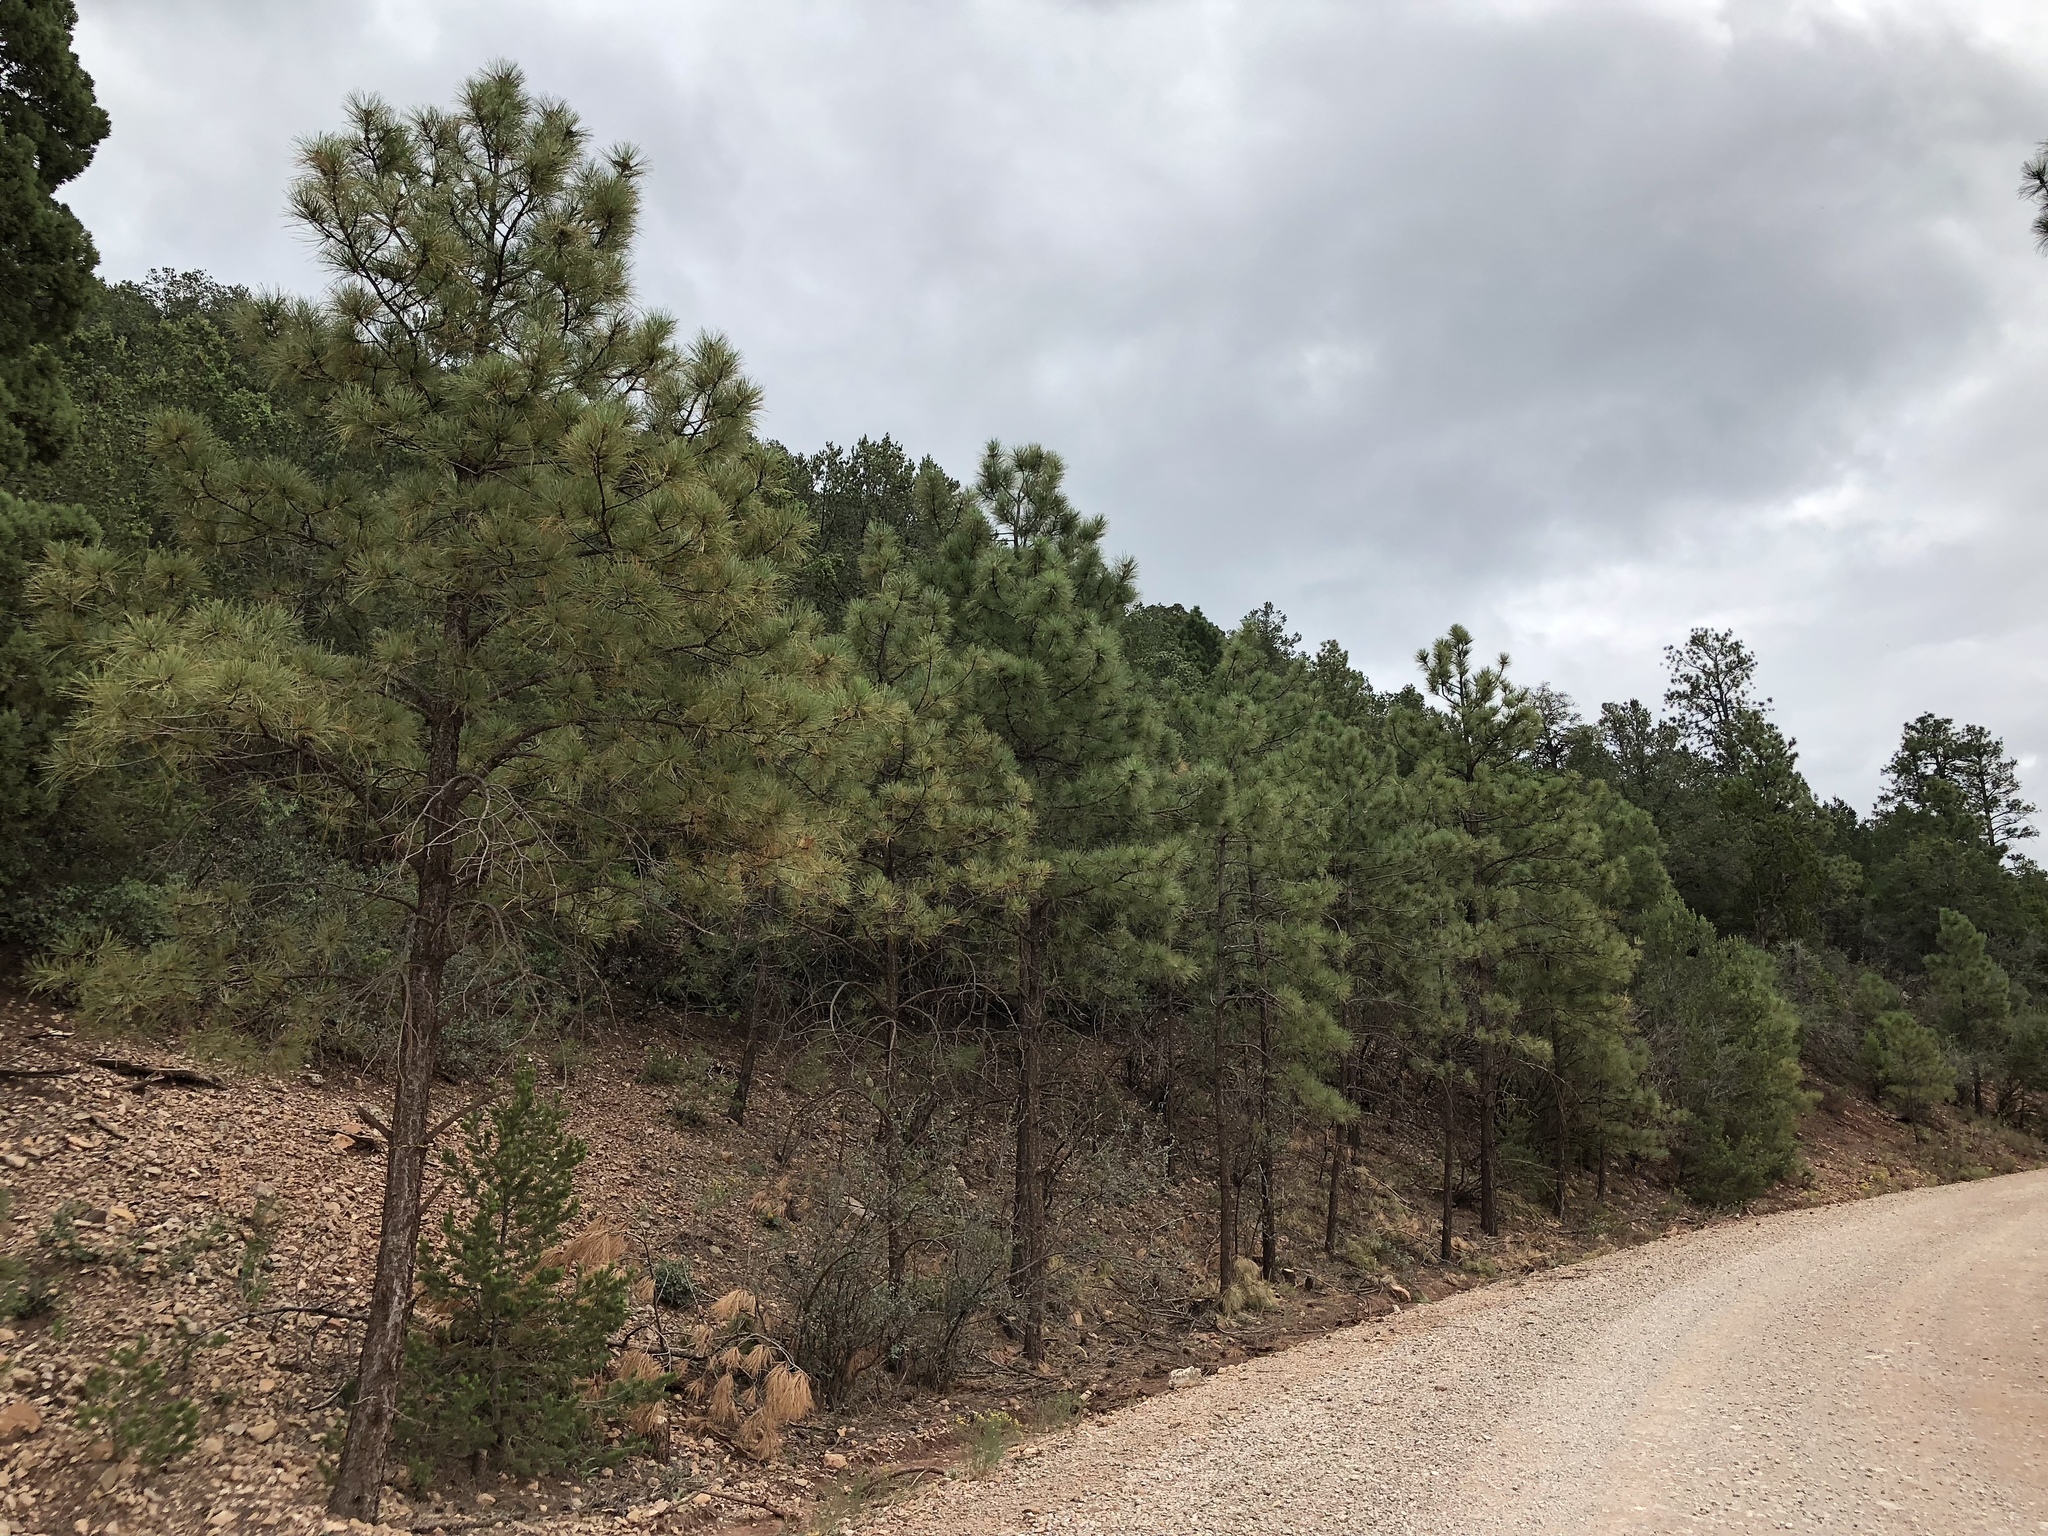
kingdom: Plantae
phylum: Tracheophyta
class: Pinopsida
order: Pinales
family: Pinaceae
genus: Pinus
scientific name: Pinus ponderosa
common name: Western yellow-pine
